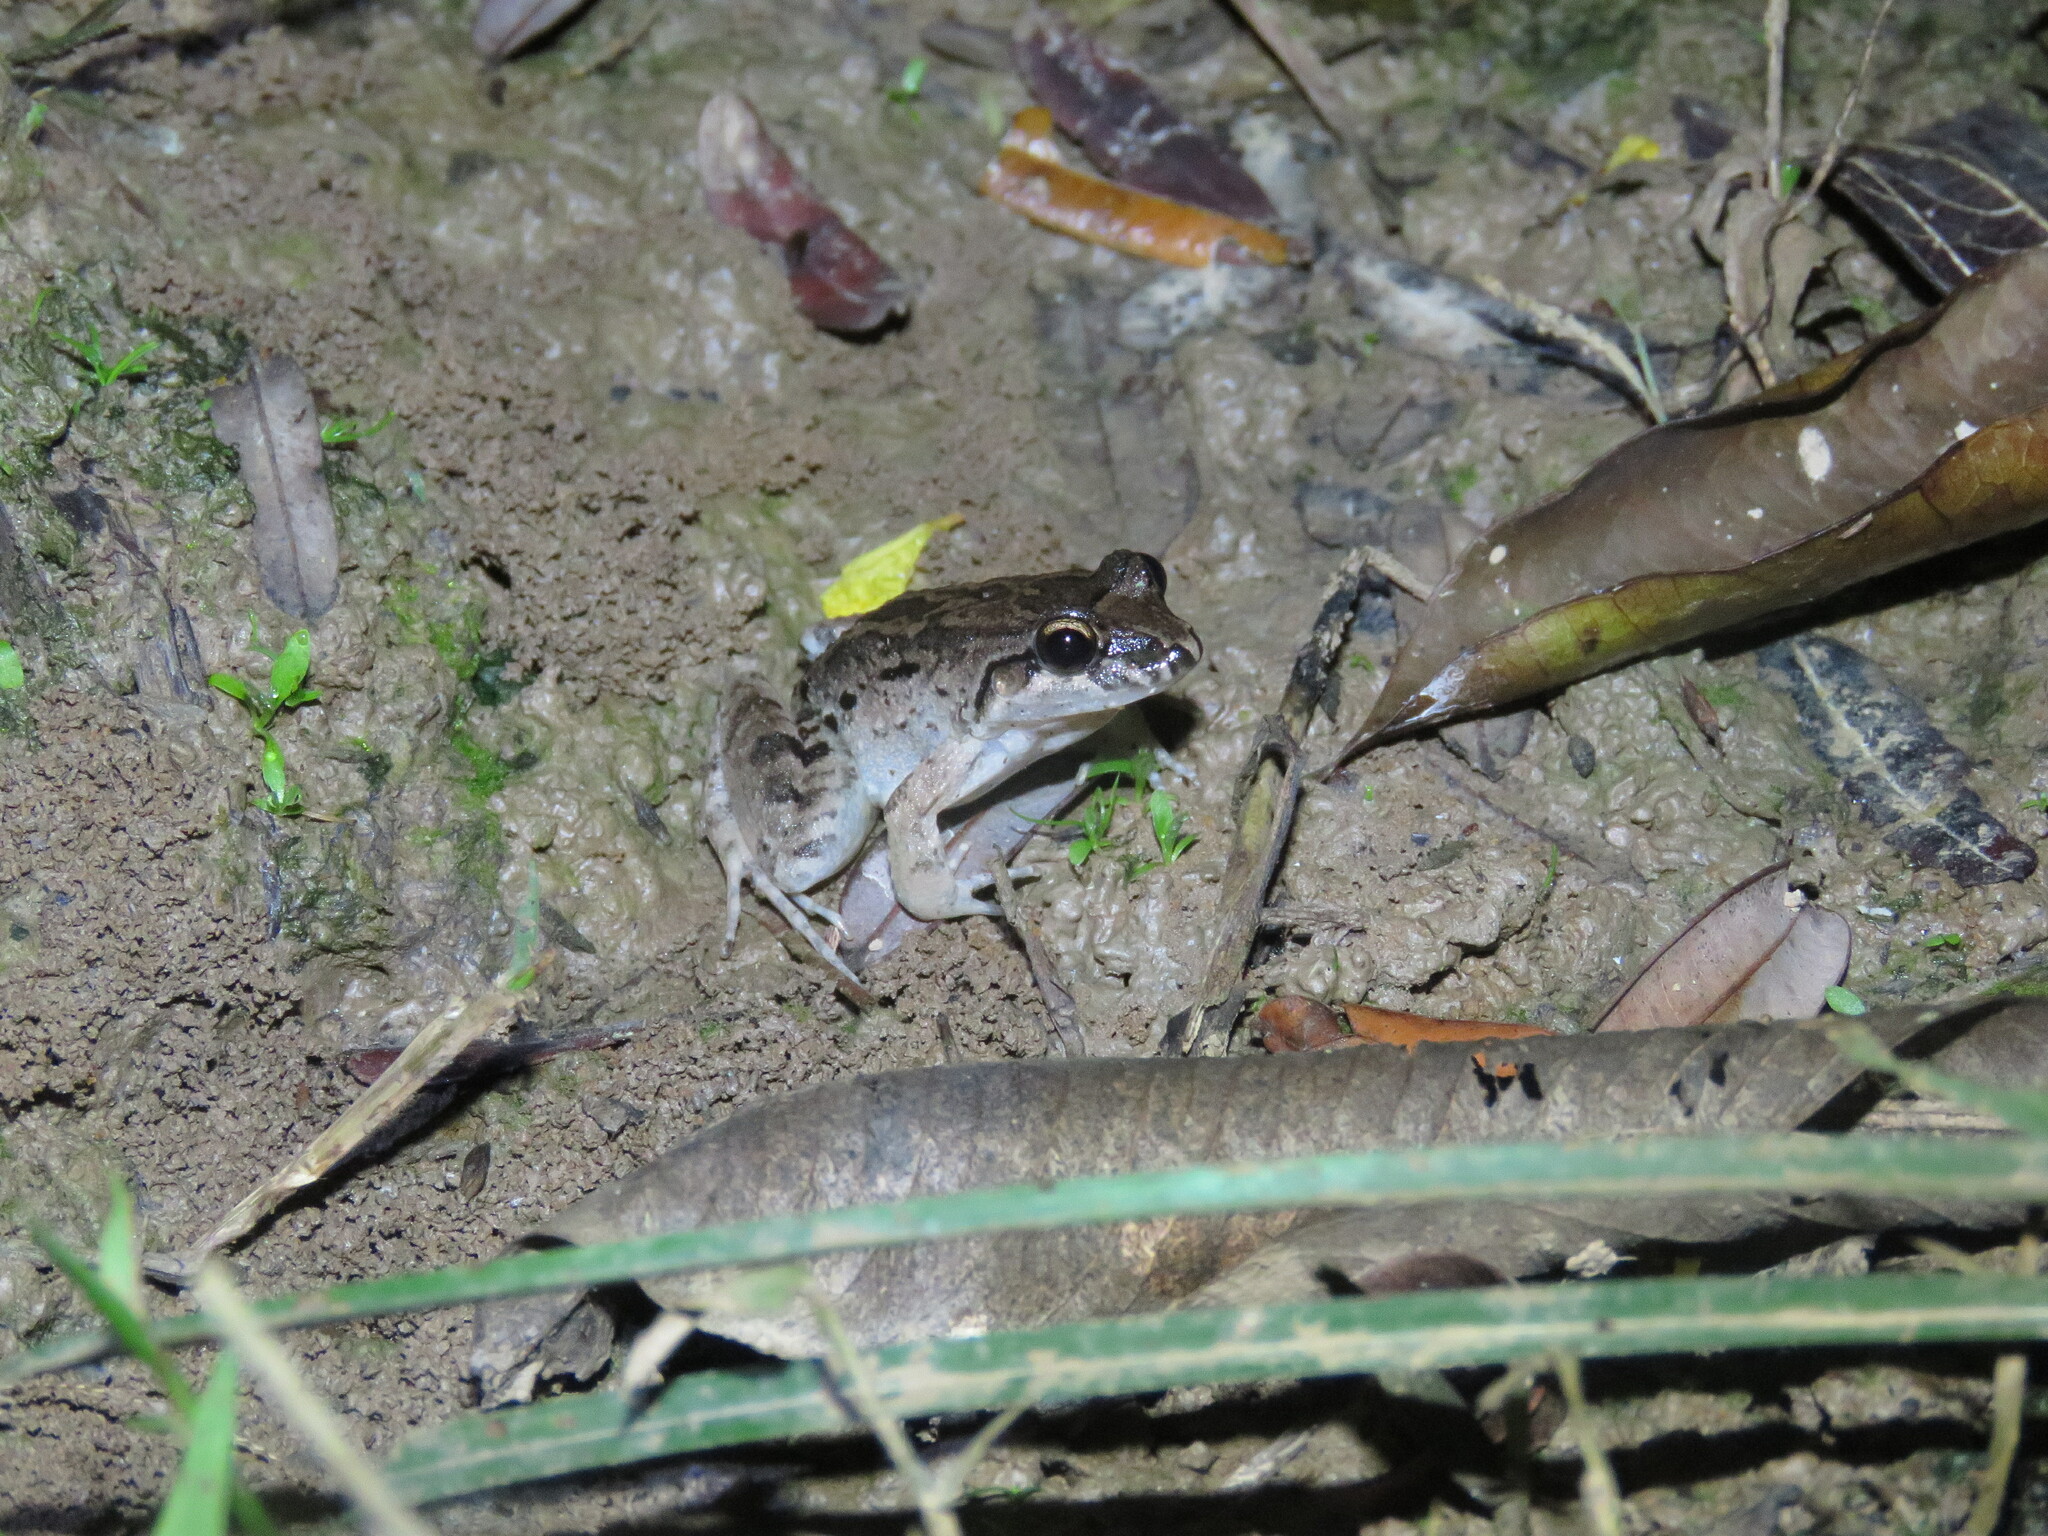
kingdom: Animalia
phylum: Chordata
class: Amphibia
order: Anura
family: Leptodactylidae
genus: Leptodactylus
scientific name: Leptodactylus leptodactyloides
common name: Common thin-toed frog
